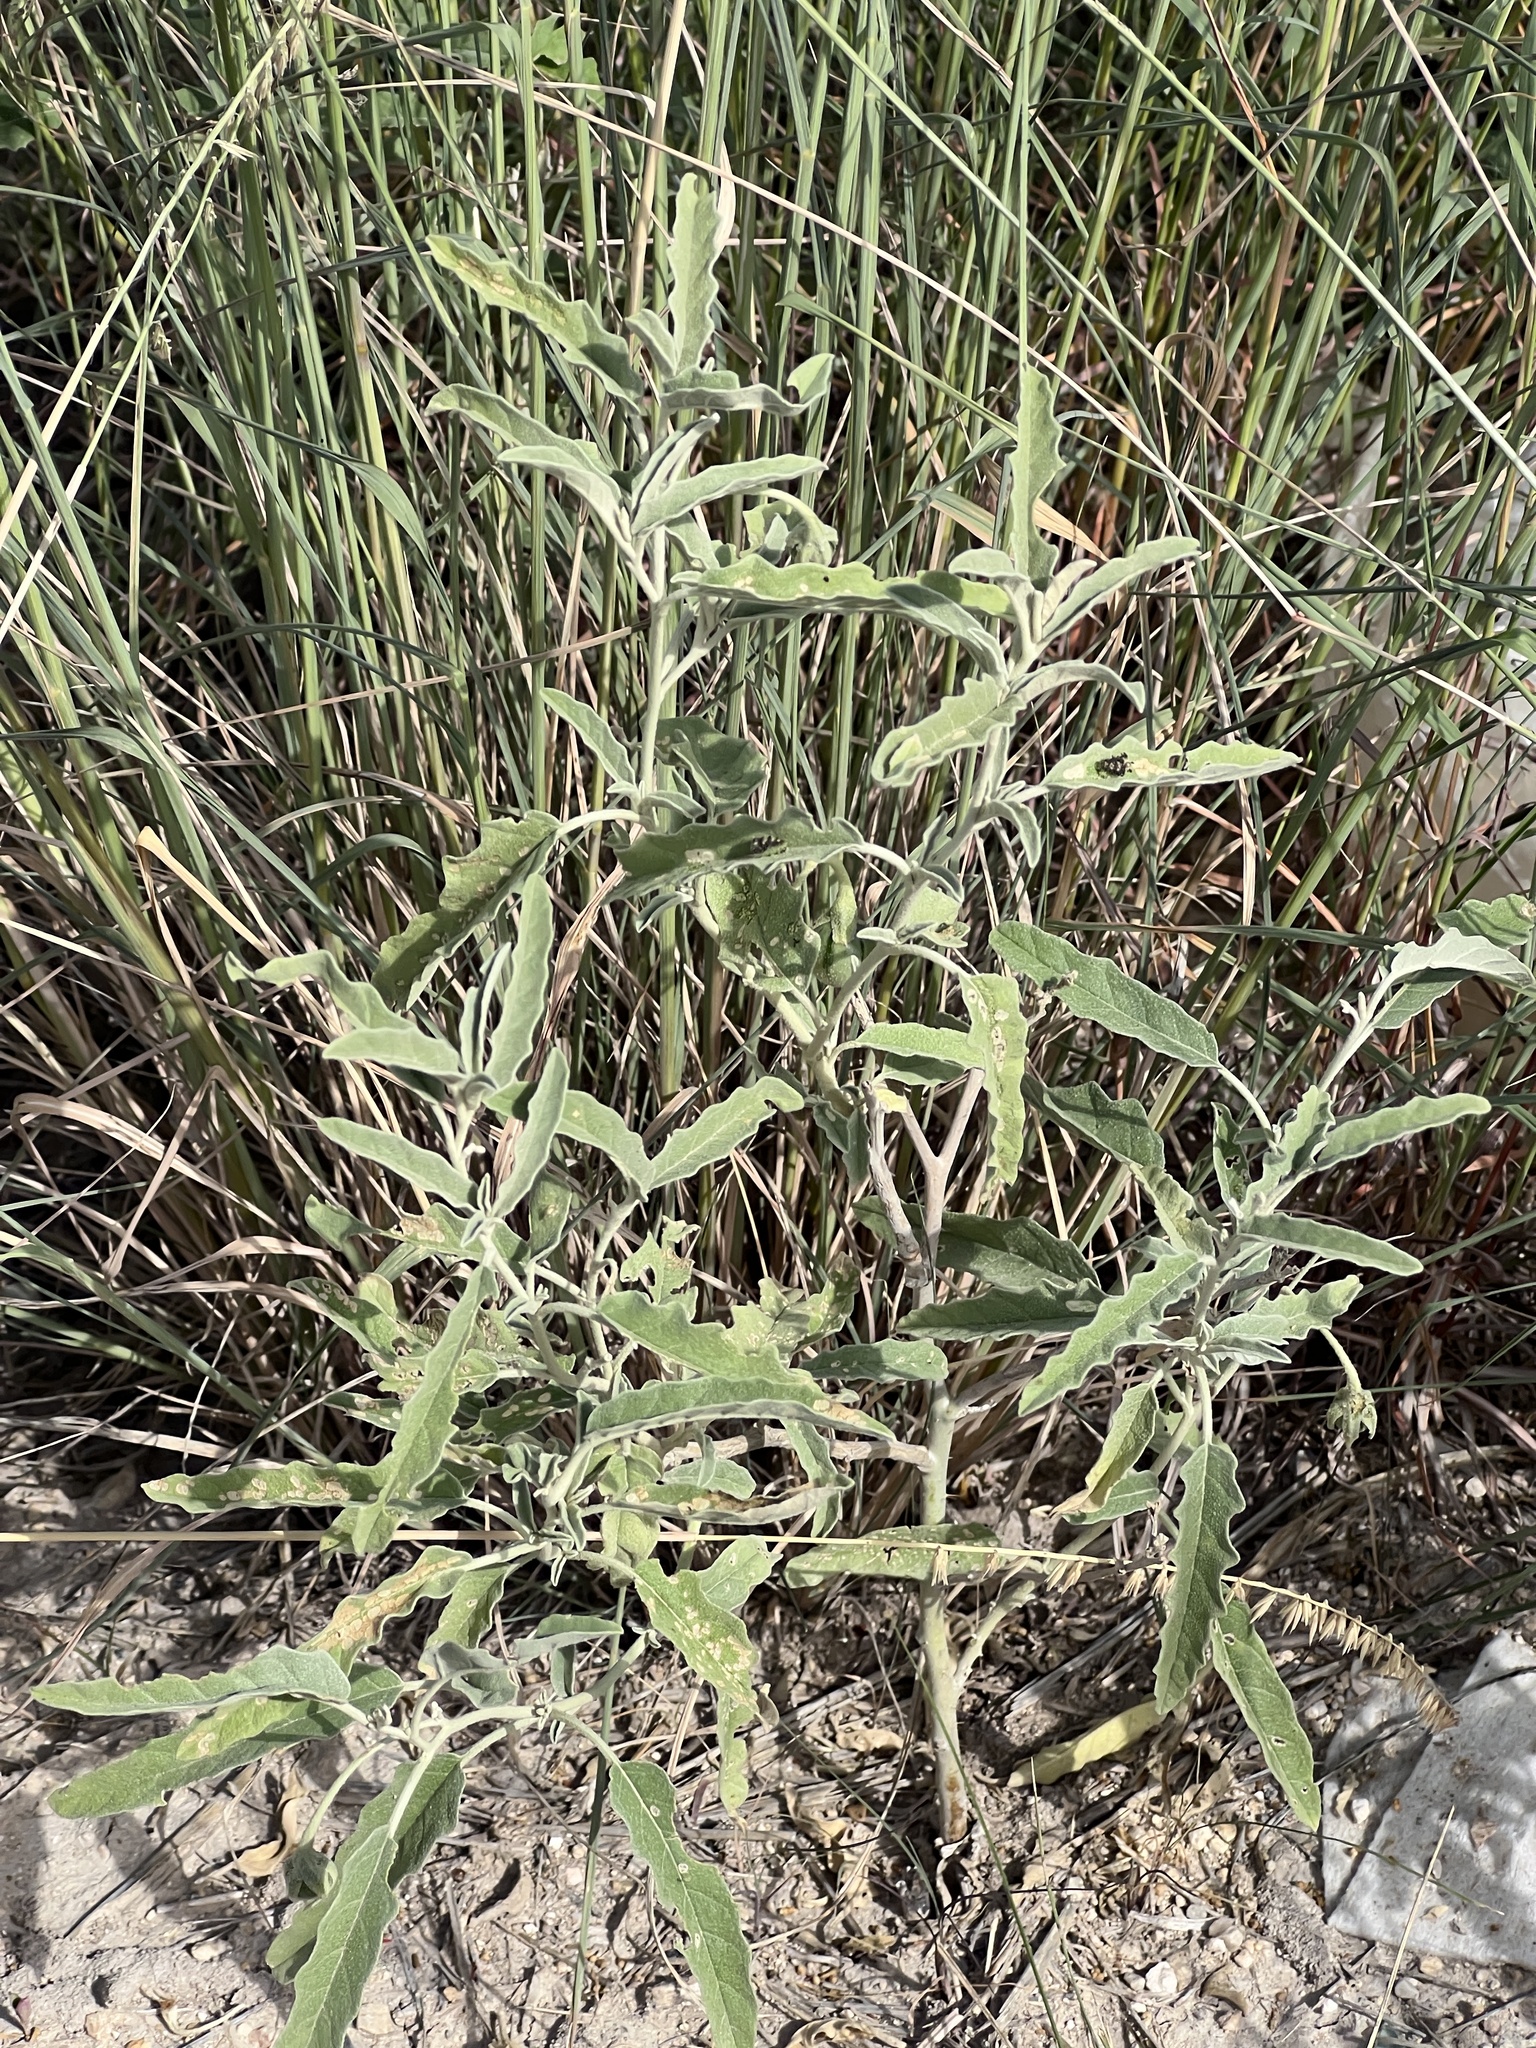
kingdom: Plantae
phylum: Tracheophyta
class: Magnoliopsida
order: Solanales
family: Solanaceae
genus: Solanum
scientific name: Solanum elaeagnifolium
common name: Silverleaf nightshade
